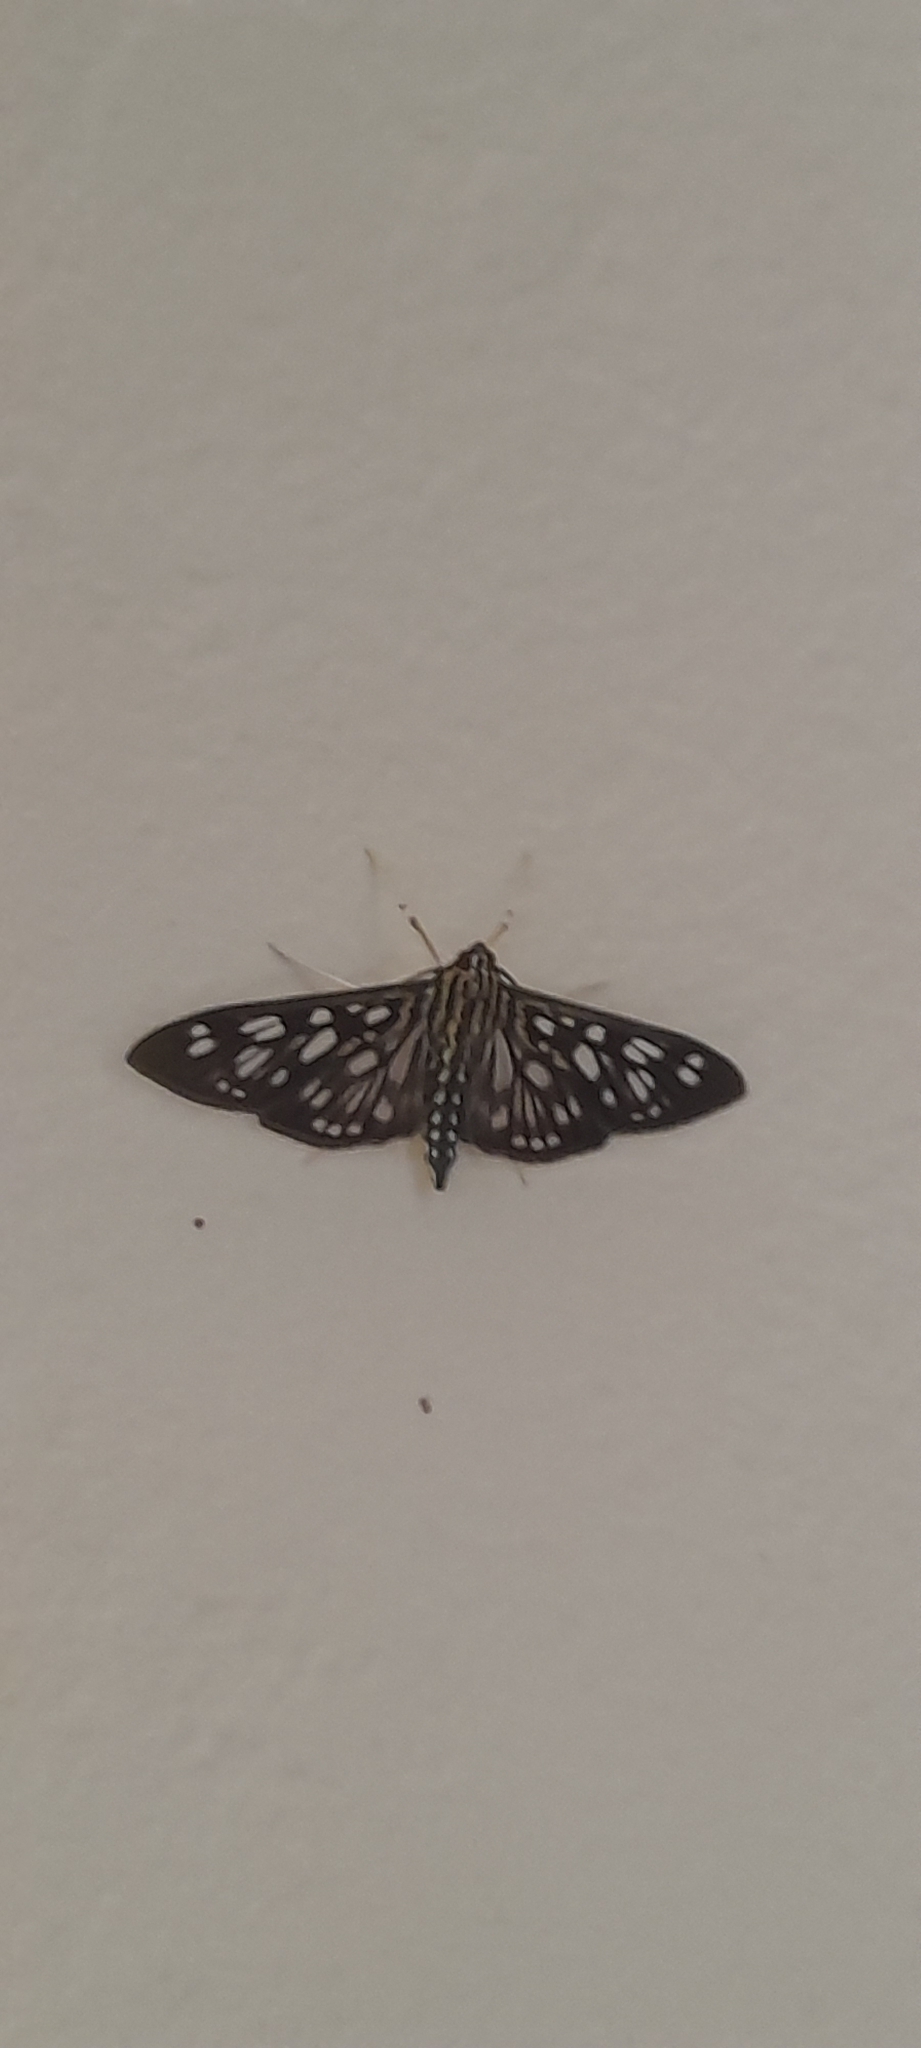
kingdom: Animalia
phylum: Arthropoda
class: Insecta
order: Lepidoptera
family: Crambidae
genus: Pygospila
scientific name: Pygospila tyres
